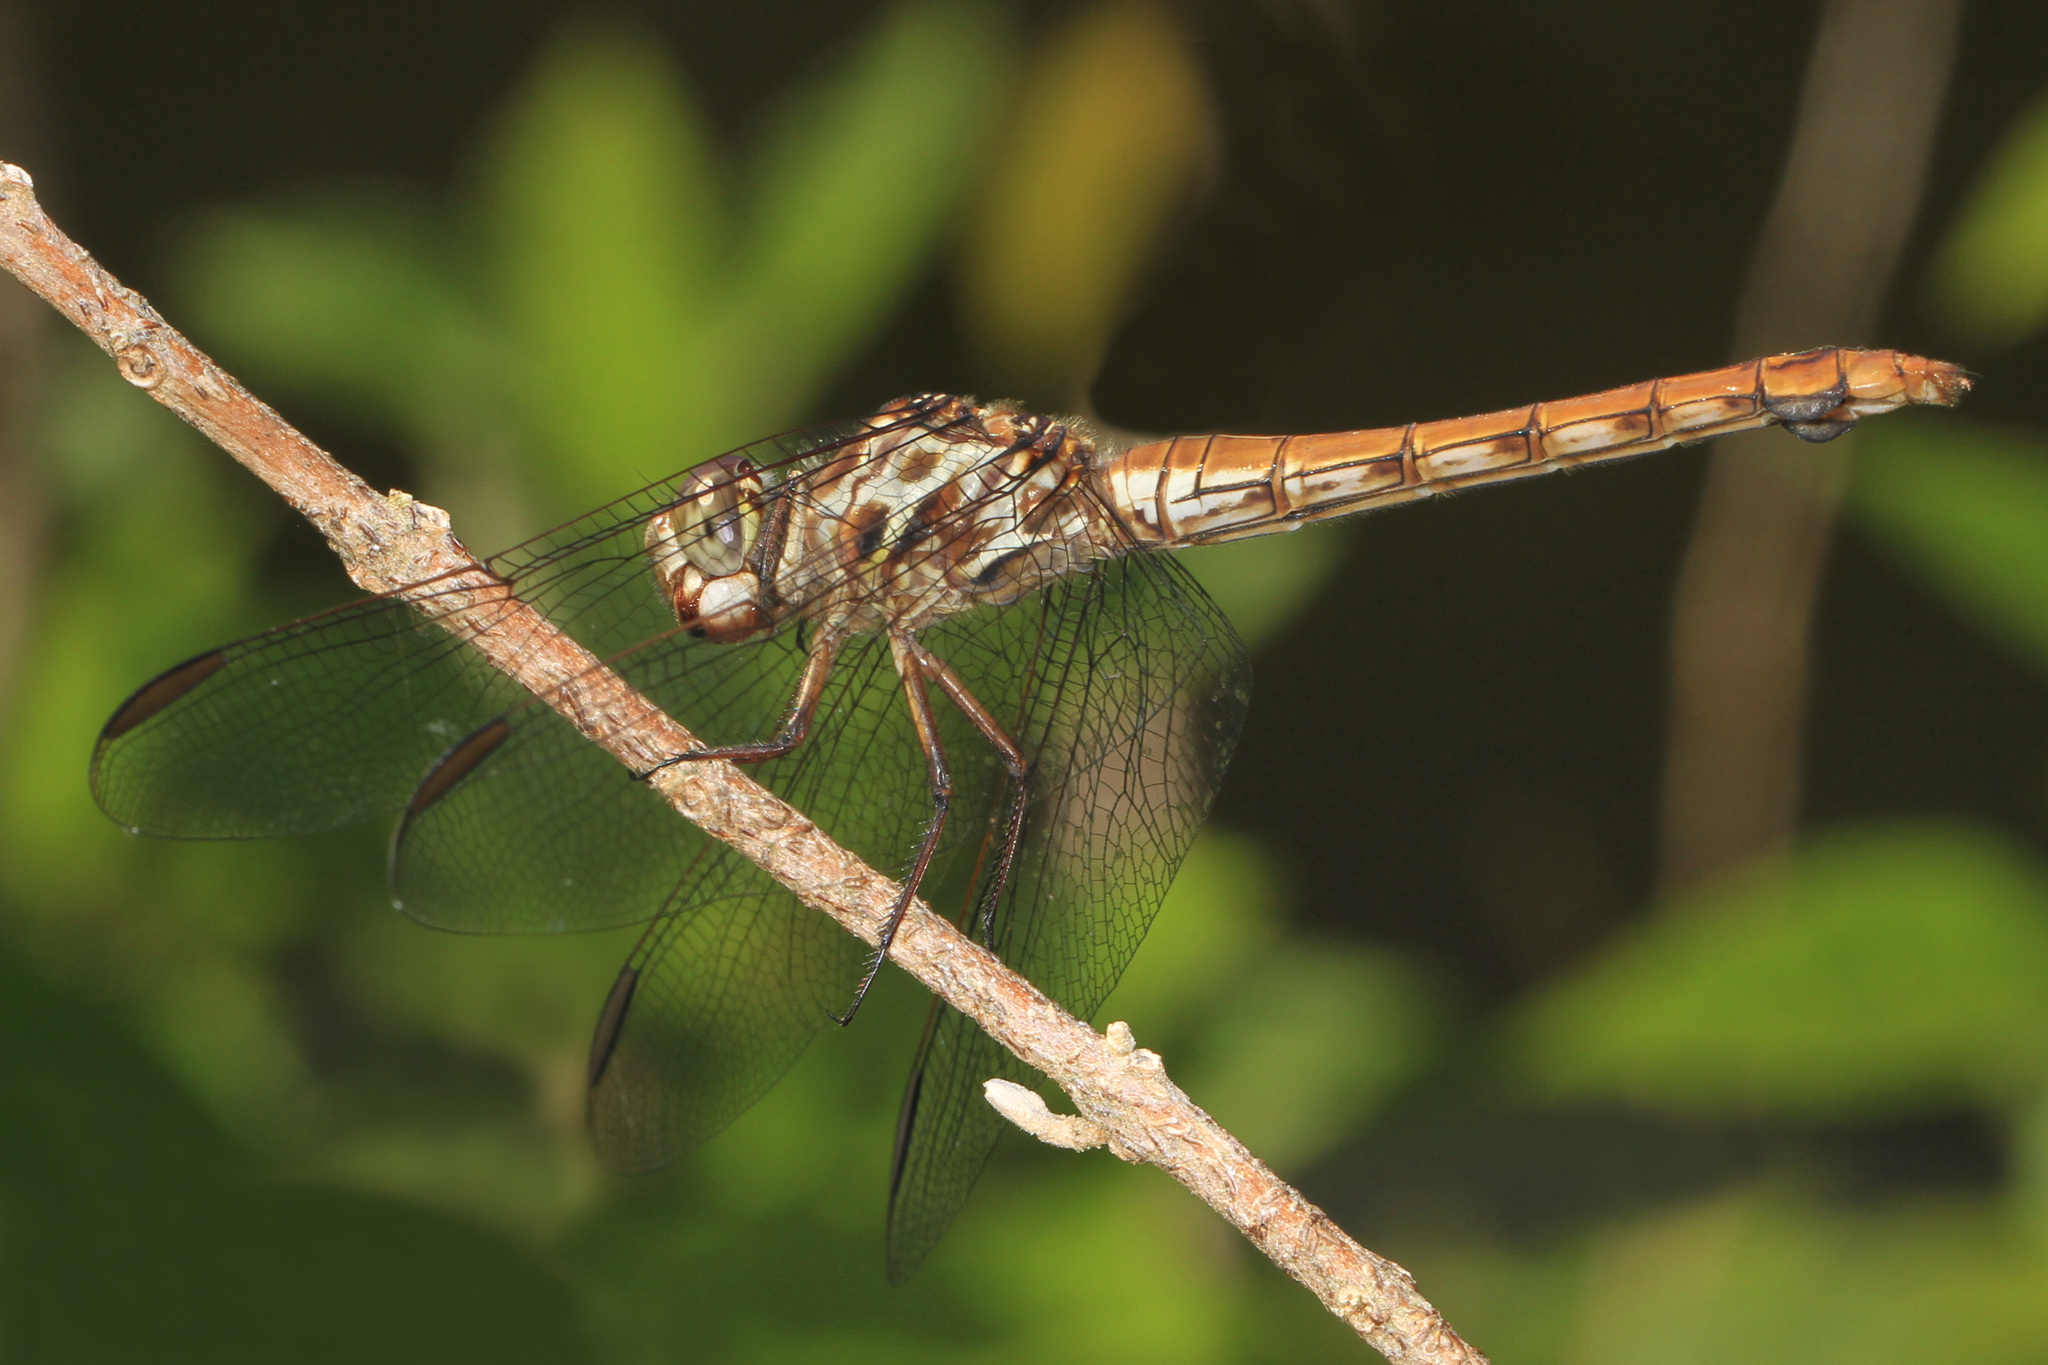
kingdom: Animalia
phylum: Arthropoda
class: Insecta
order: Odonata
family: Libellulidae
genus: Orthemis
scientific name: Orthemis ferruginea
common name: Roseate skimmer
